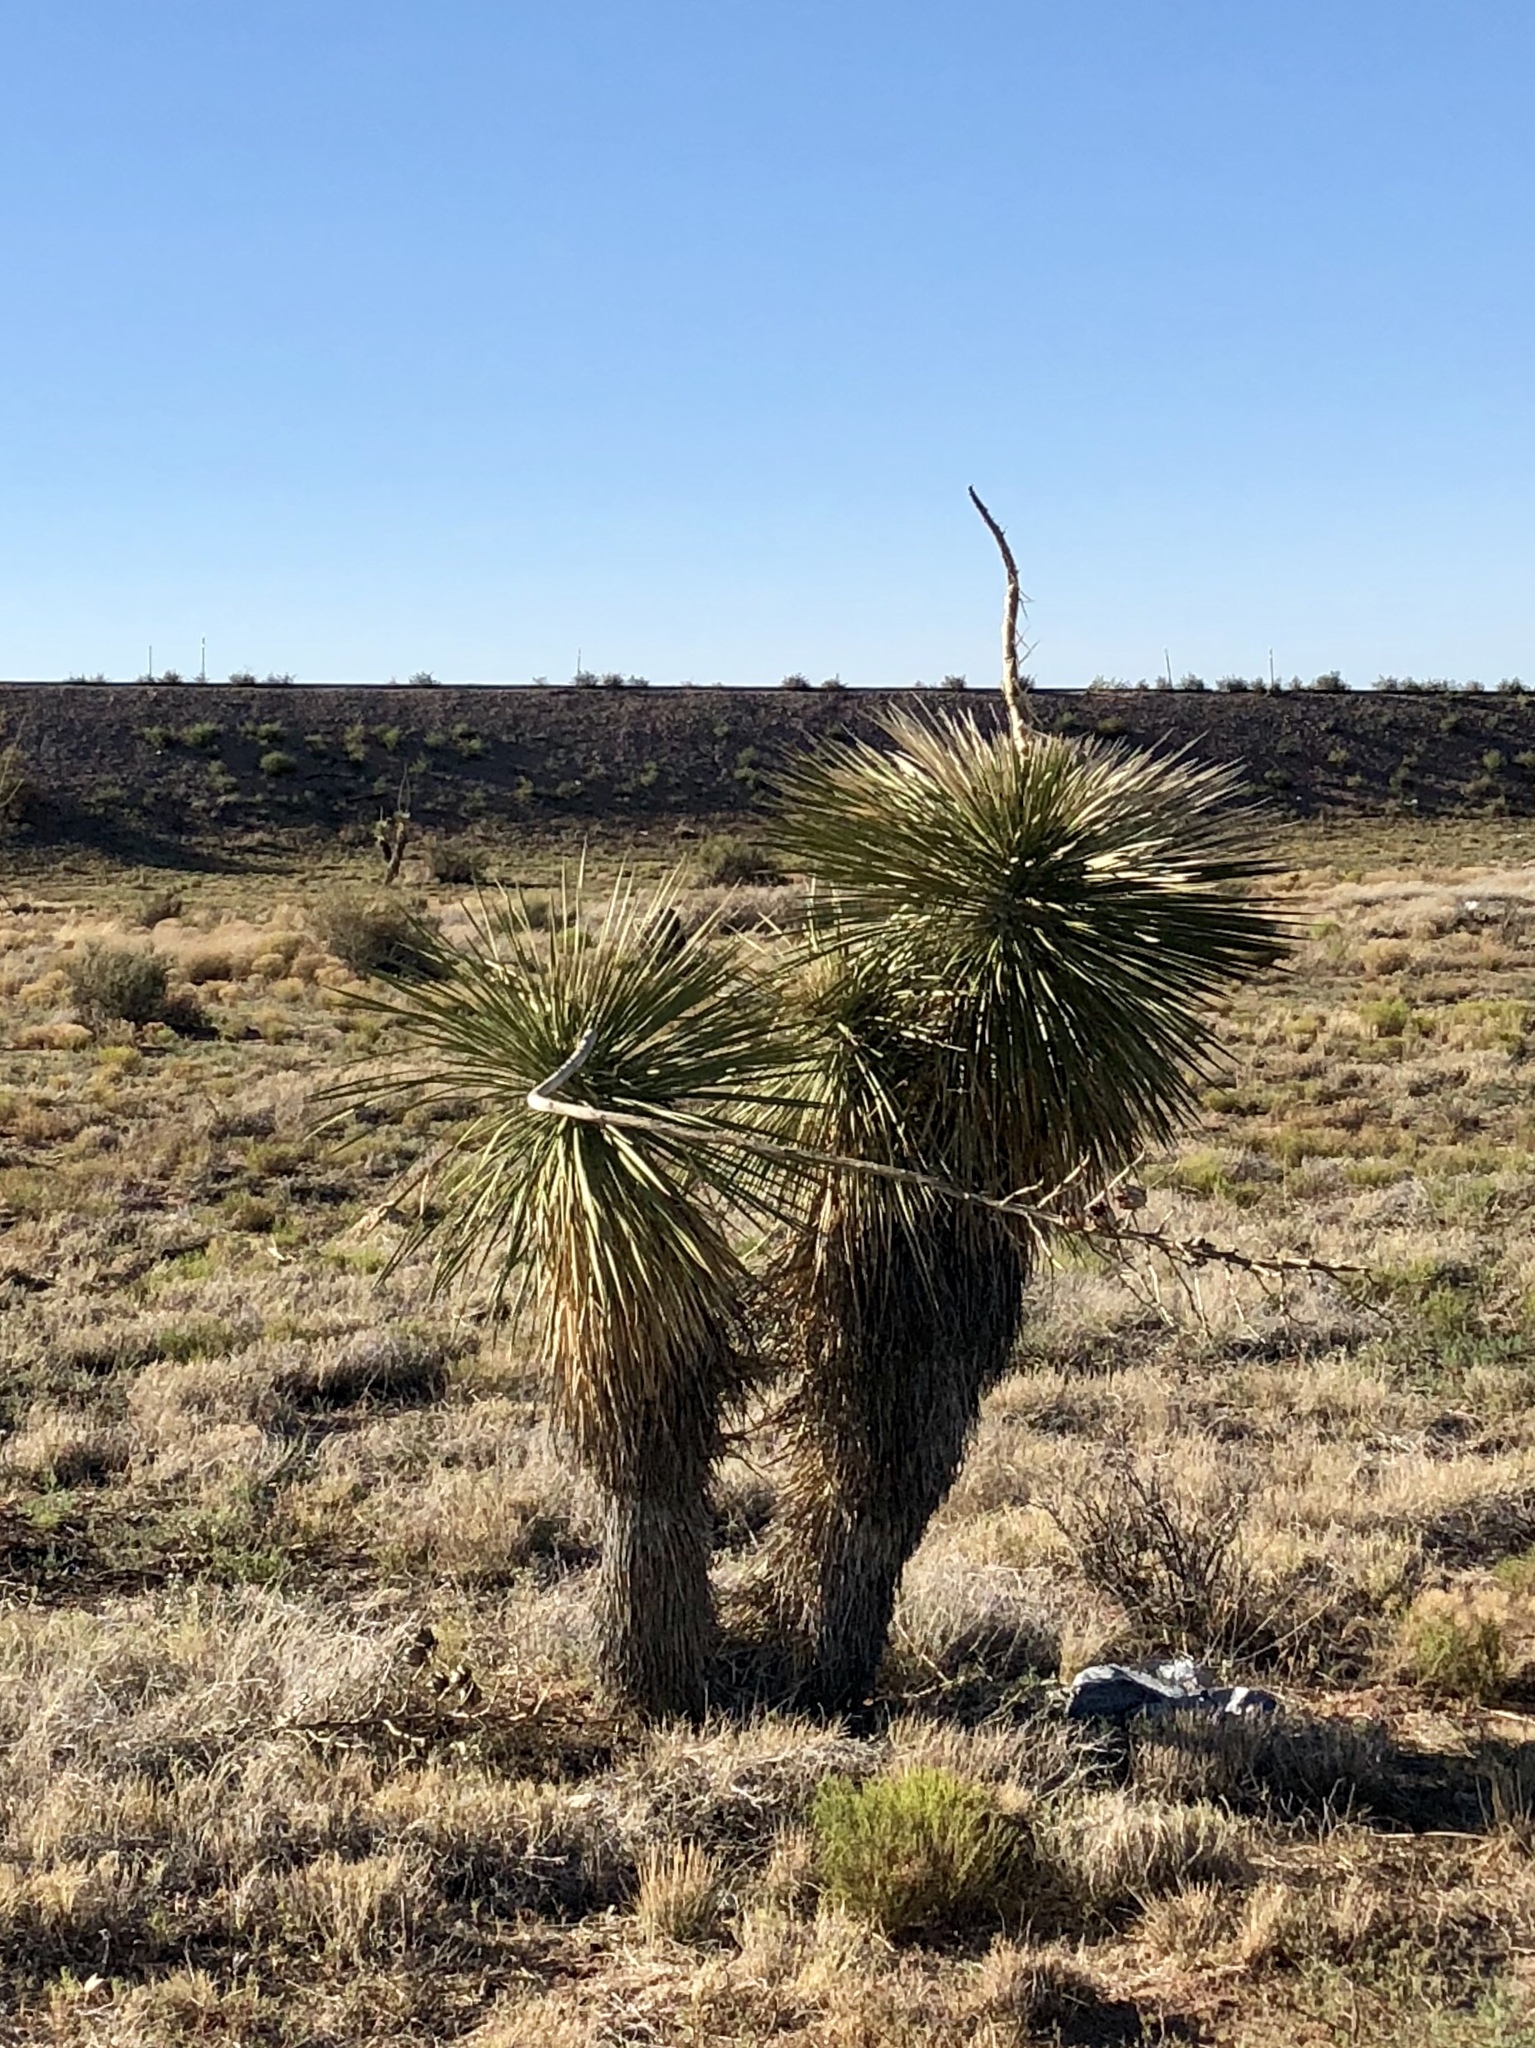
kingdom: Plantae
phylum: Tracheophyta
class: Liliopsida
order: Asparagales
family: Asparagaceae
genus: Yucca
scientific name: Yucca elata
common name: Palmella
